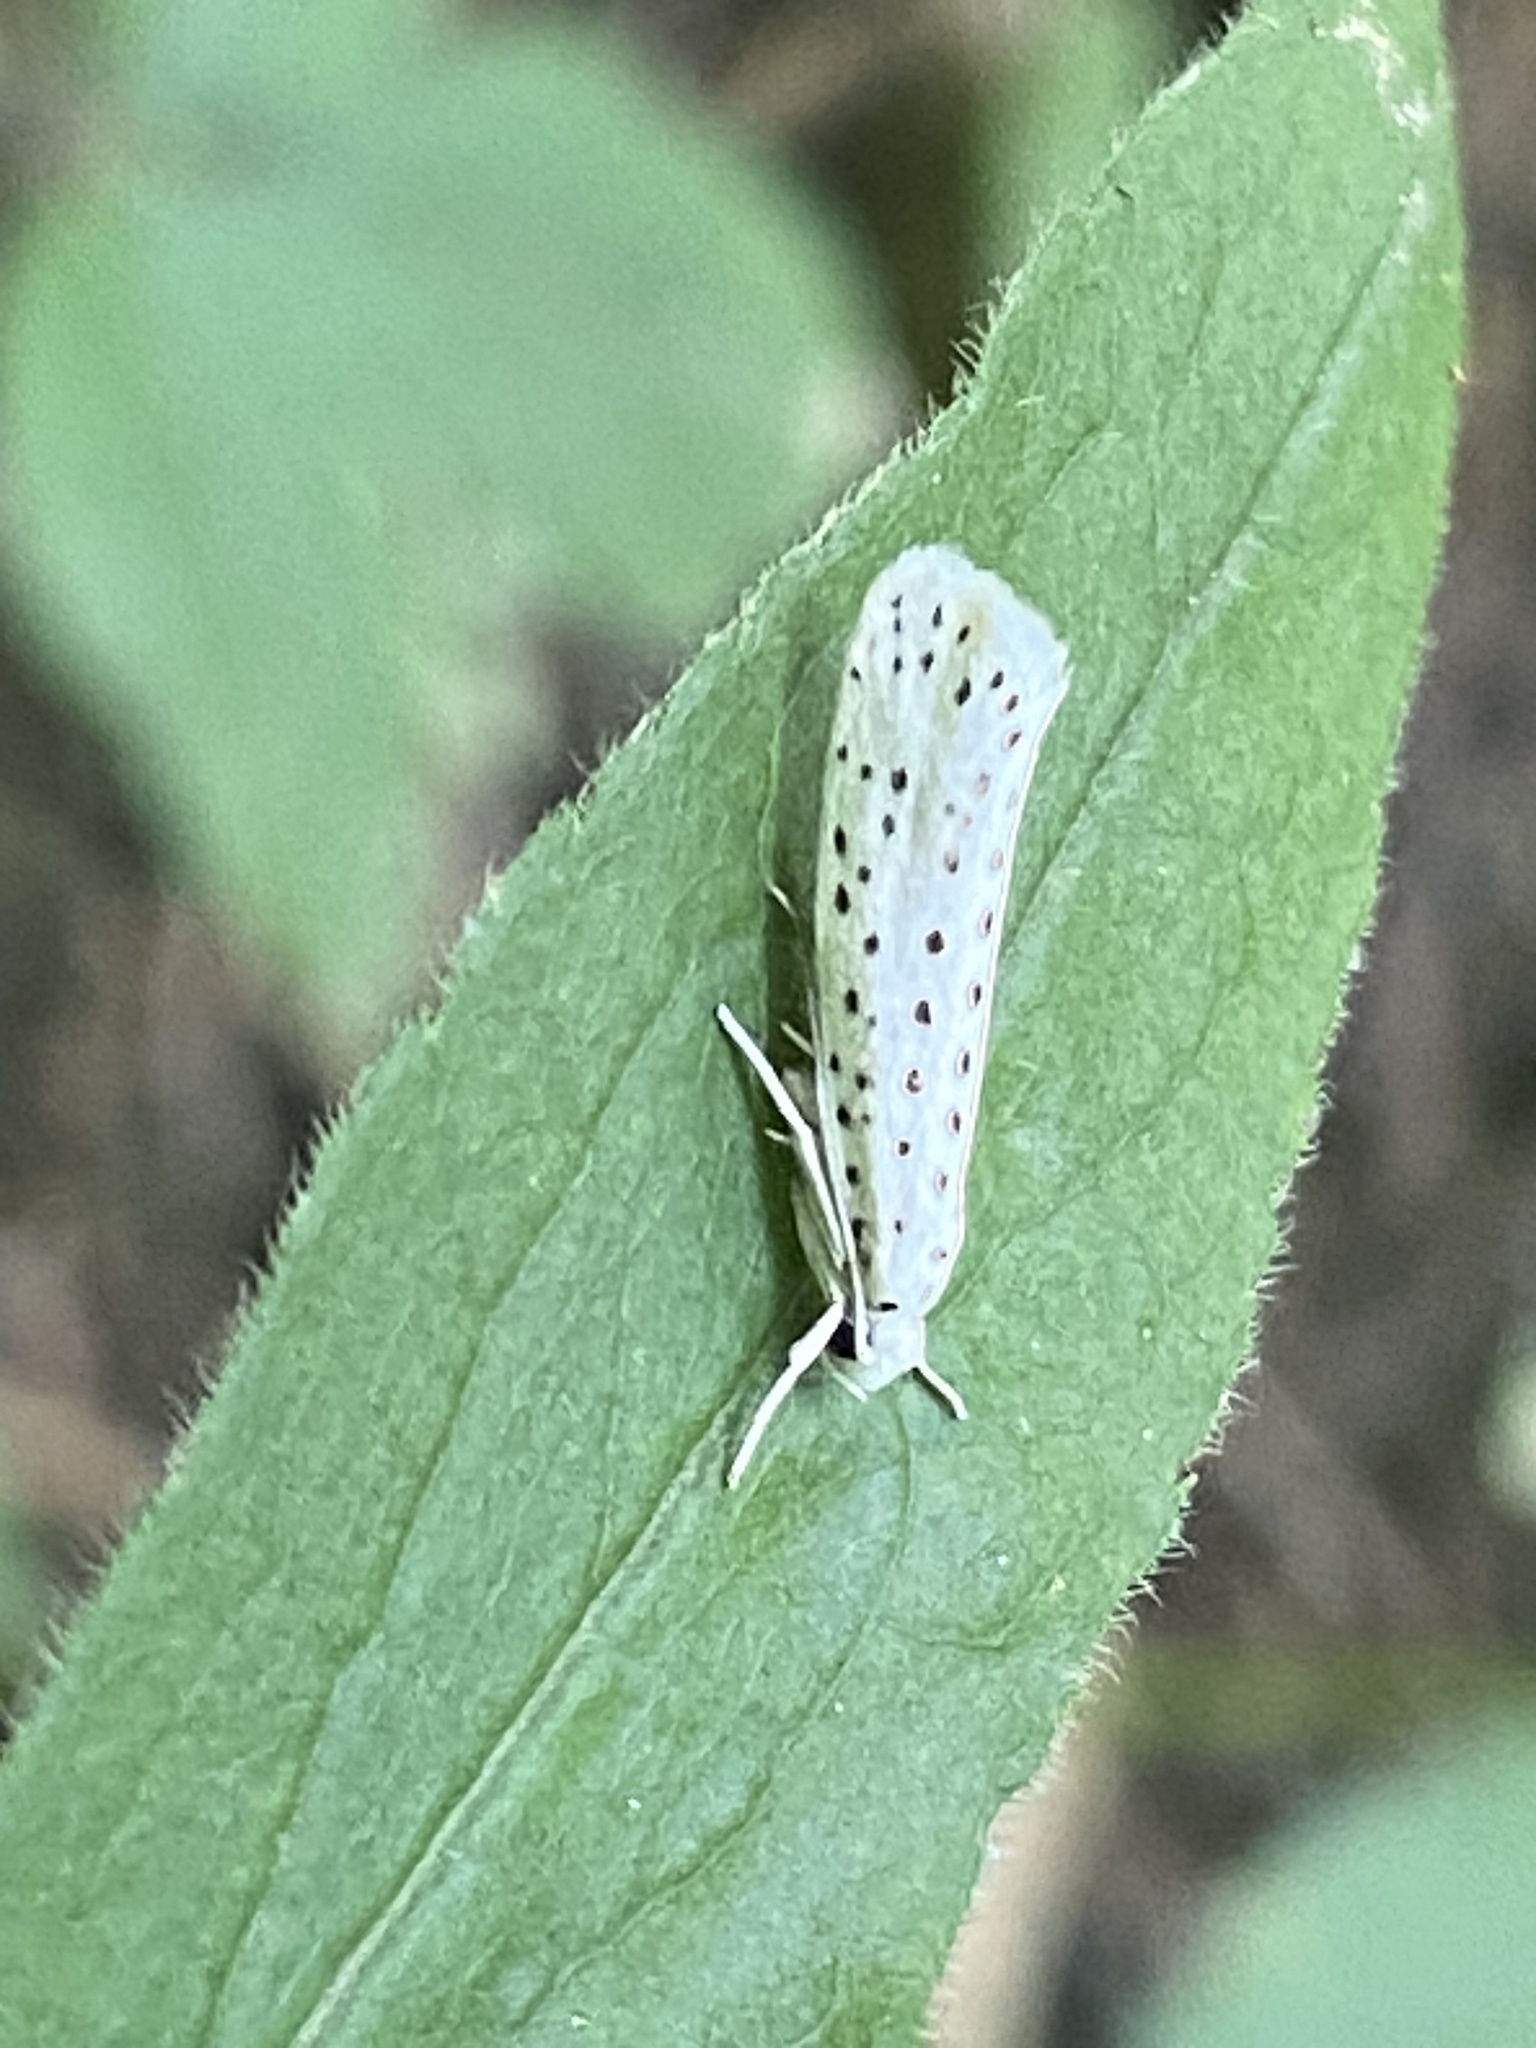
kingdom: Animalia
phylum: Arthropoda
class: Insecta
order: Lepidoptera
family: Yponomeutidae
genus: Yponomeuta
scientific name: Yponomeuta multipunctella
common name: American ermine moth
